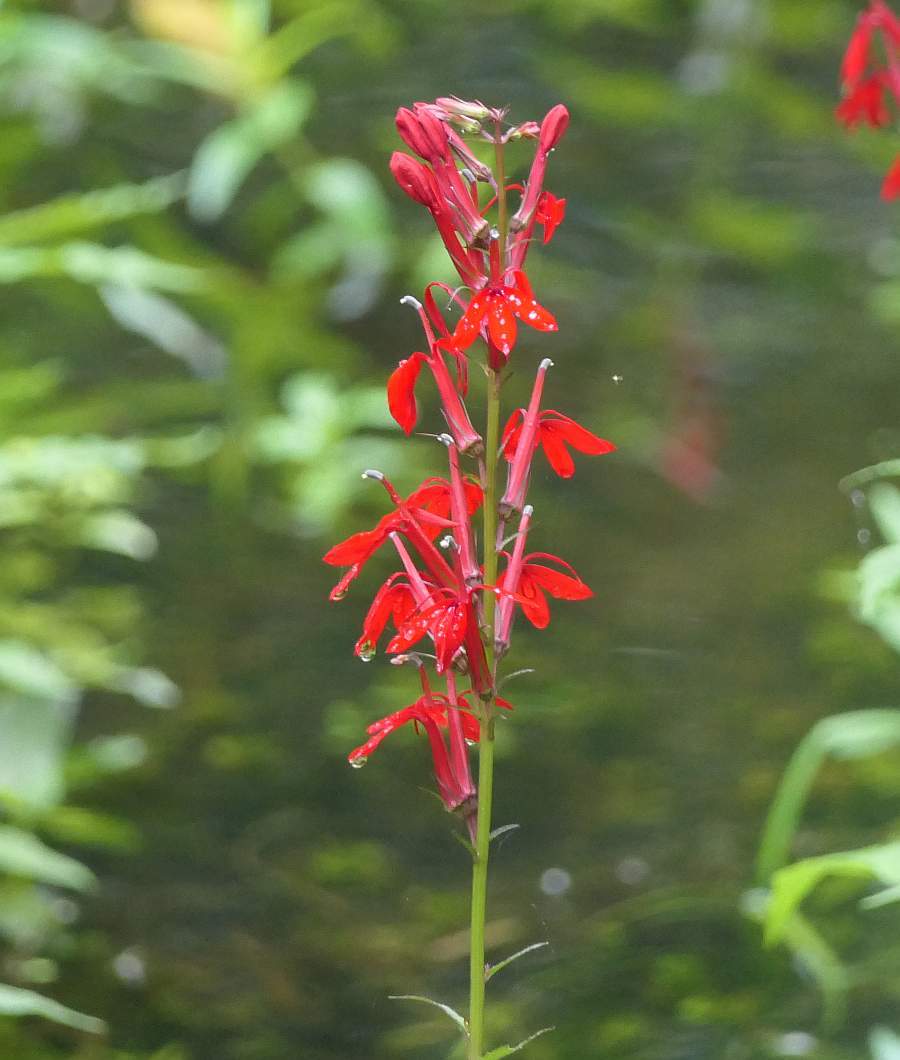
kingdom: Plantae
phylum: Tracheophyta
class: Magnoliopsida
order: Asterales
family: Campanulaceae
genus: Lobelia
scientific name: Lobelia cardinalis
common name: Cardinal flower
